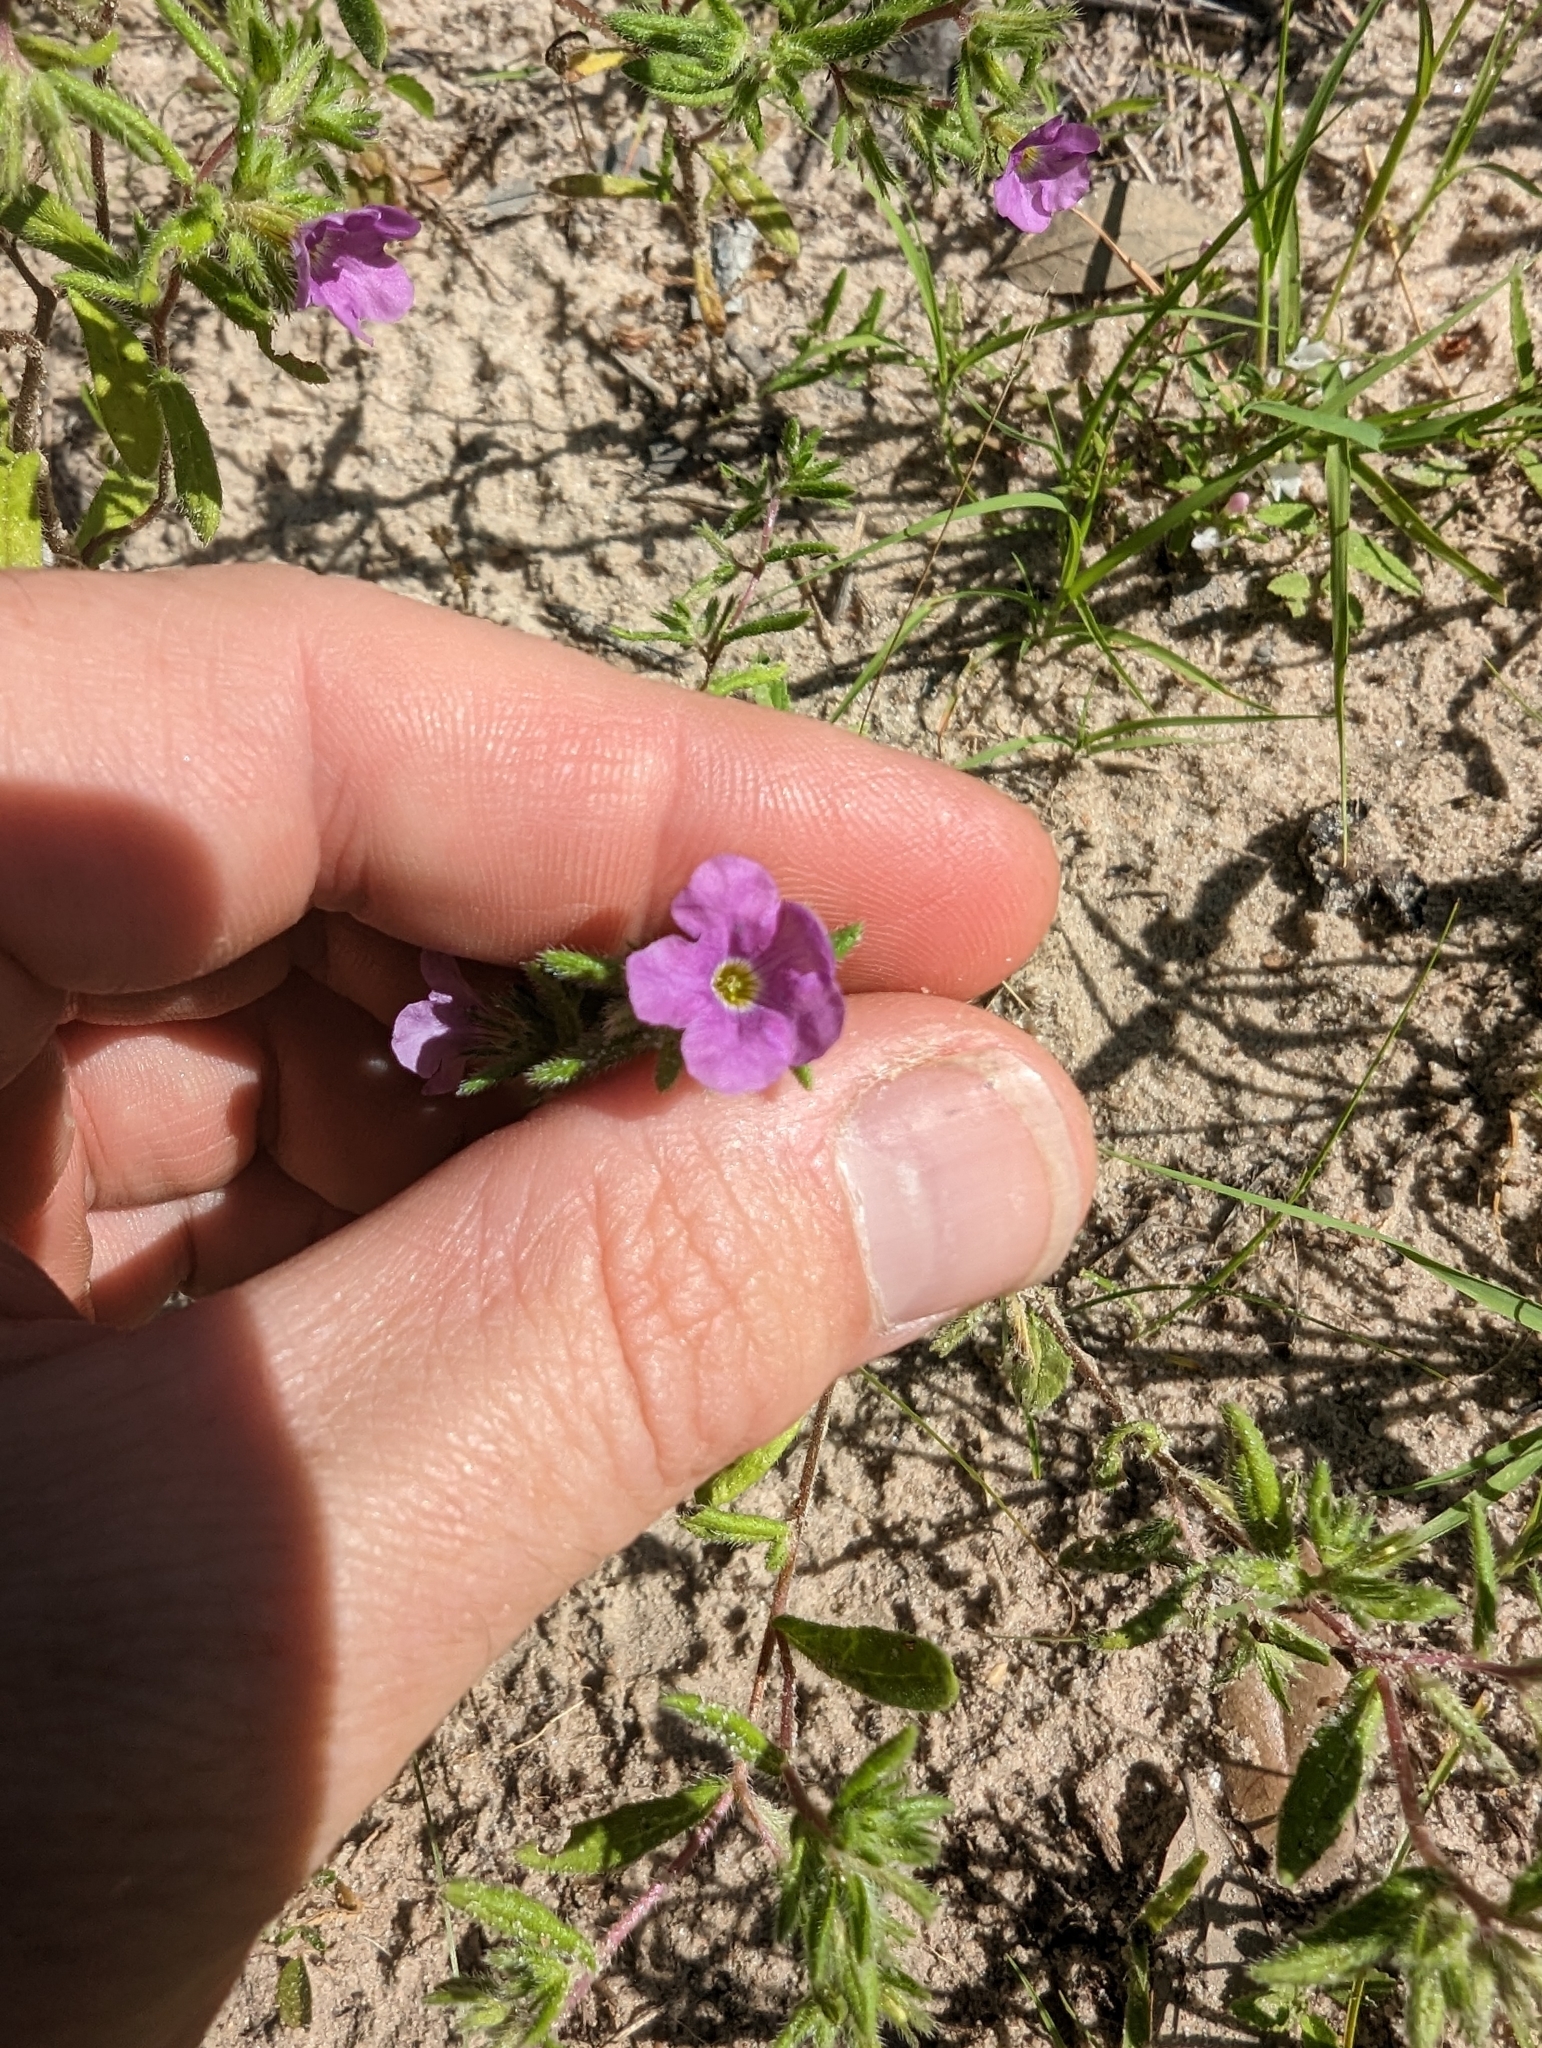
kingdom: Plantae
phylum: Tracheophyta
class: Magnoliopsida
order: Boraginales
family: Namaceae
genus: Nama
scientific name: Nama hispida
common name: Bristly nama
